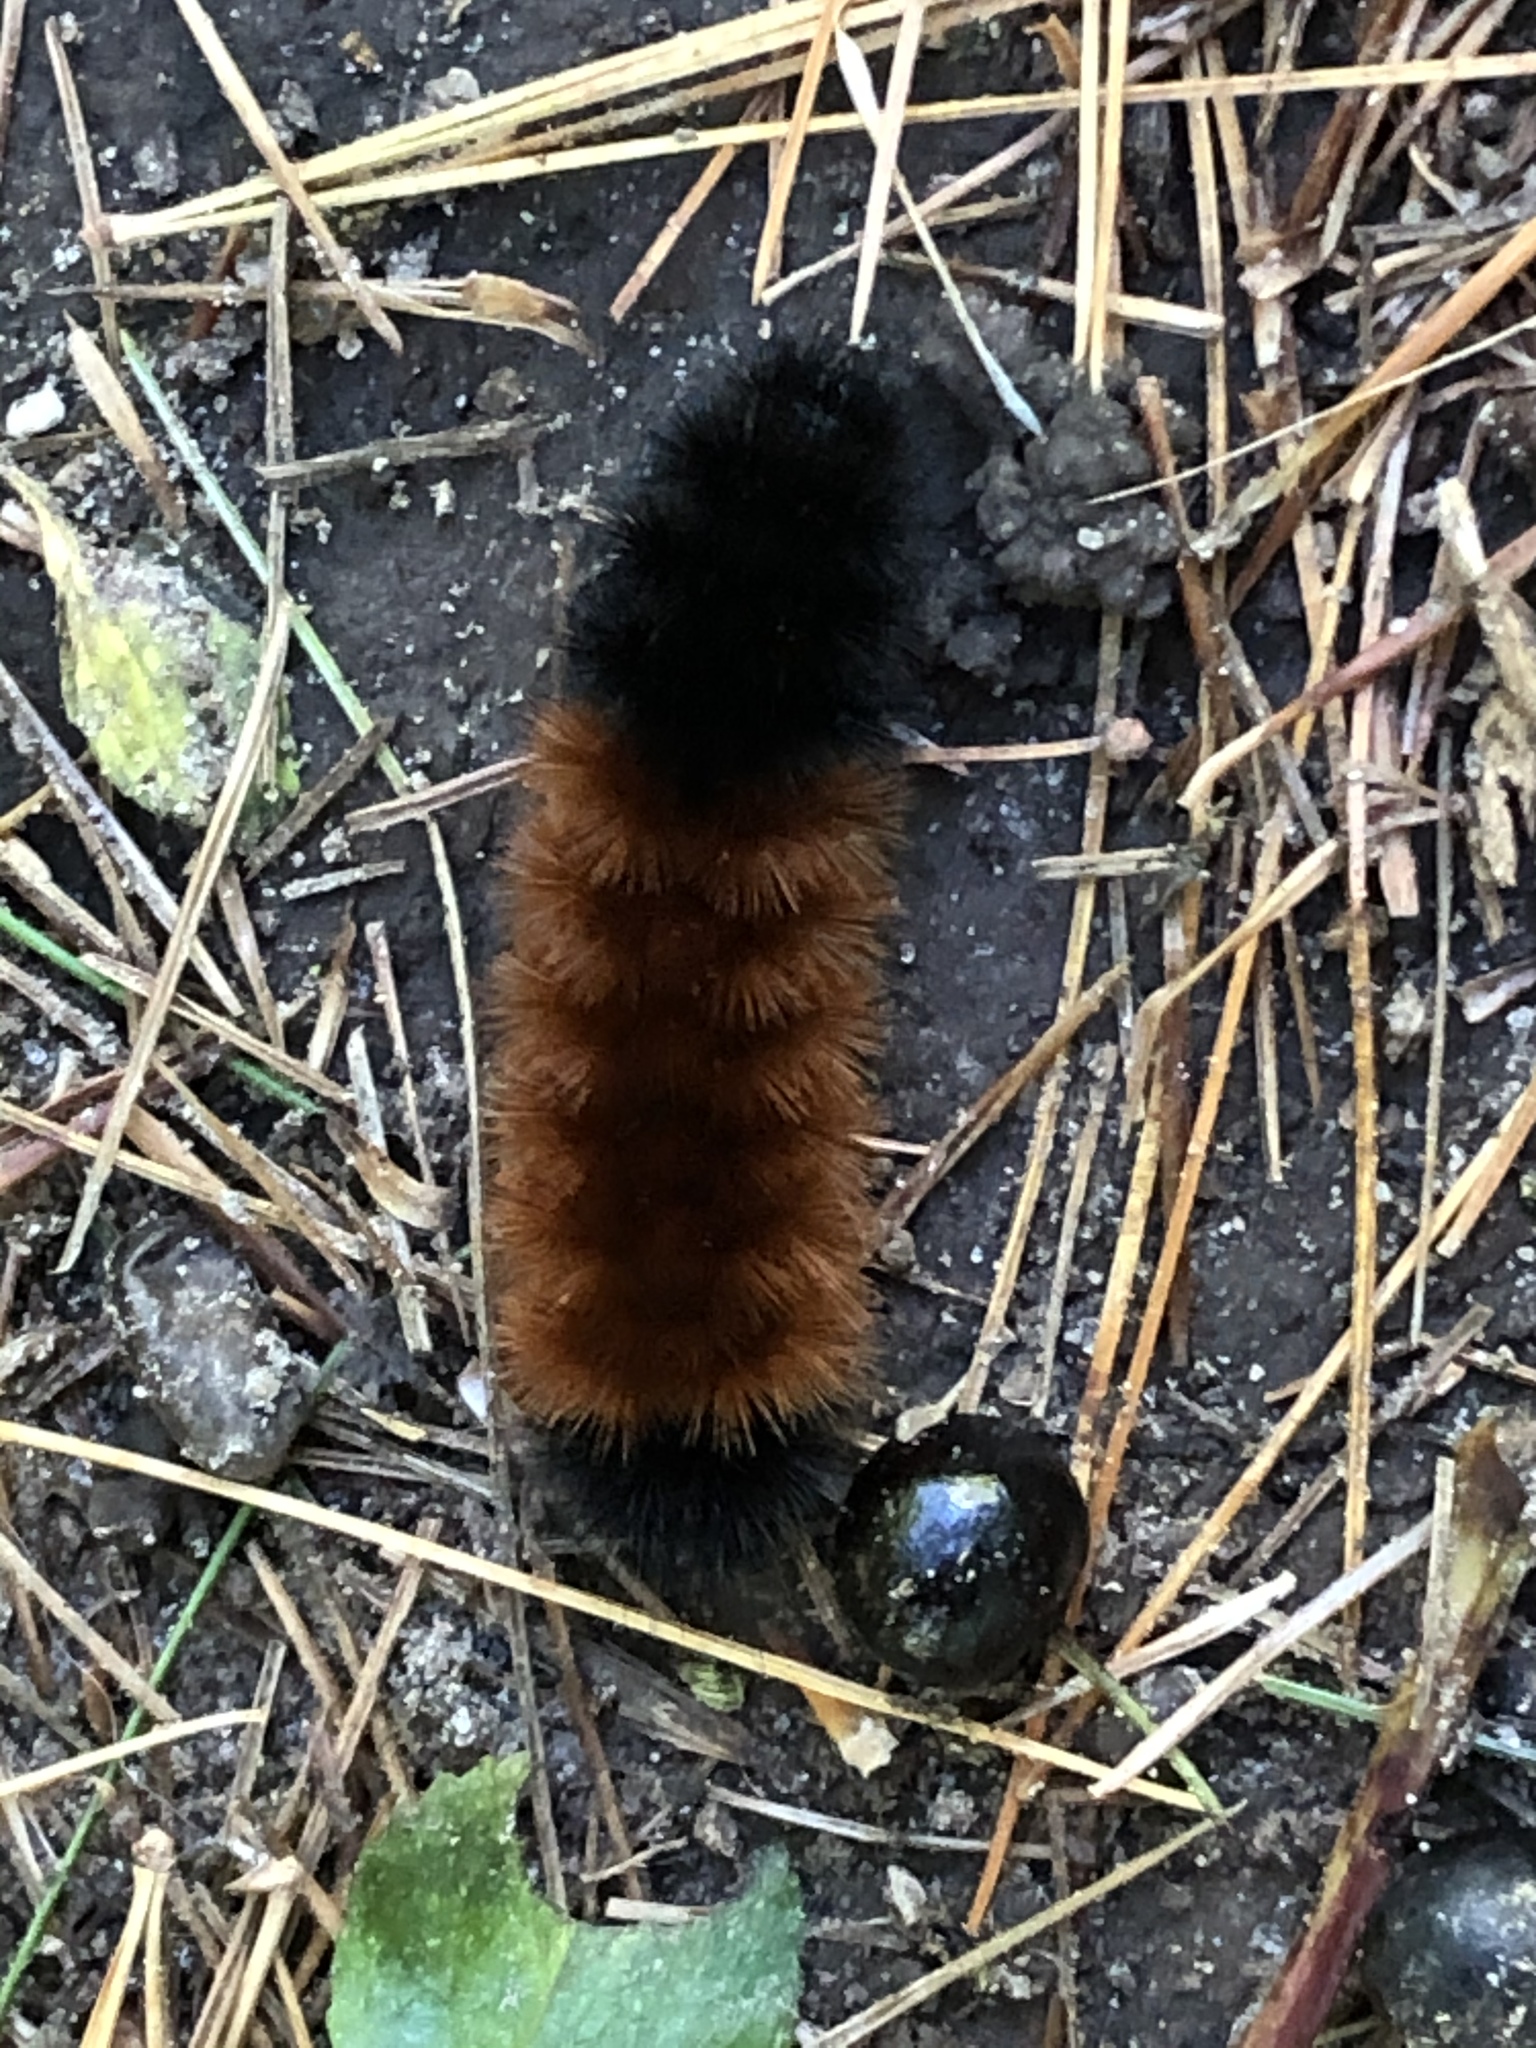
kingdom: Animalia
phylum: Arthropoda
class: Insecta
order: Lepidoptera
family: Erebidae
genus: Pyrrharctia
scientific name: Pyrrharctia isabella
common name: Isabella tiger moth
